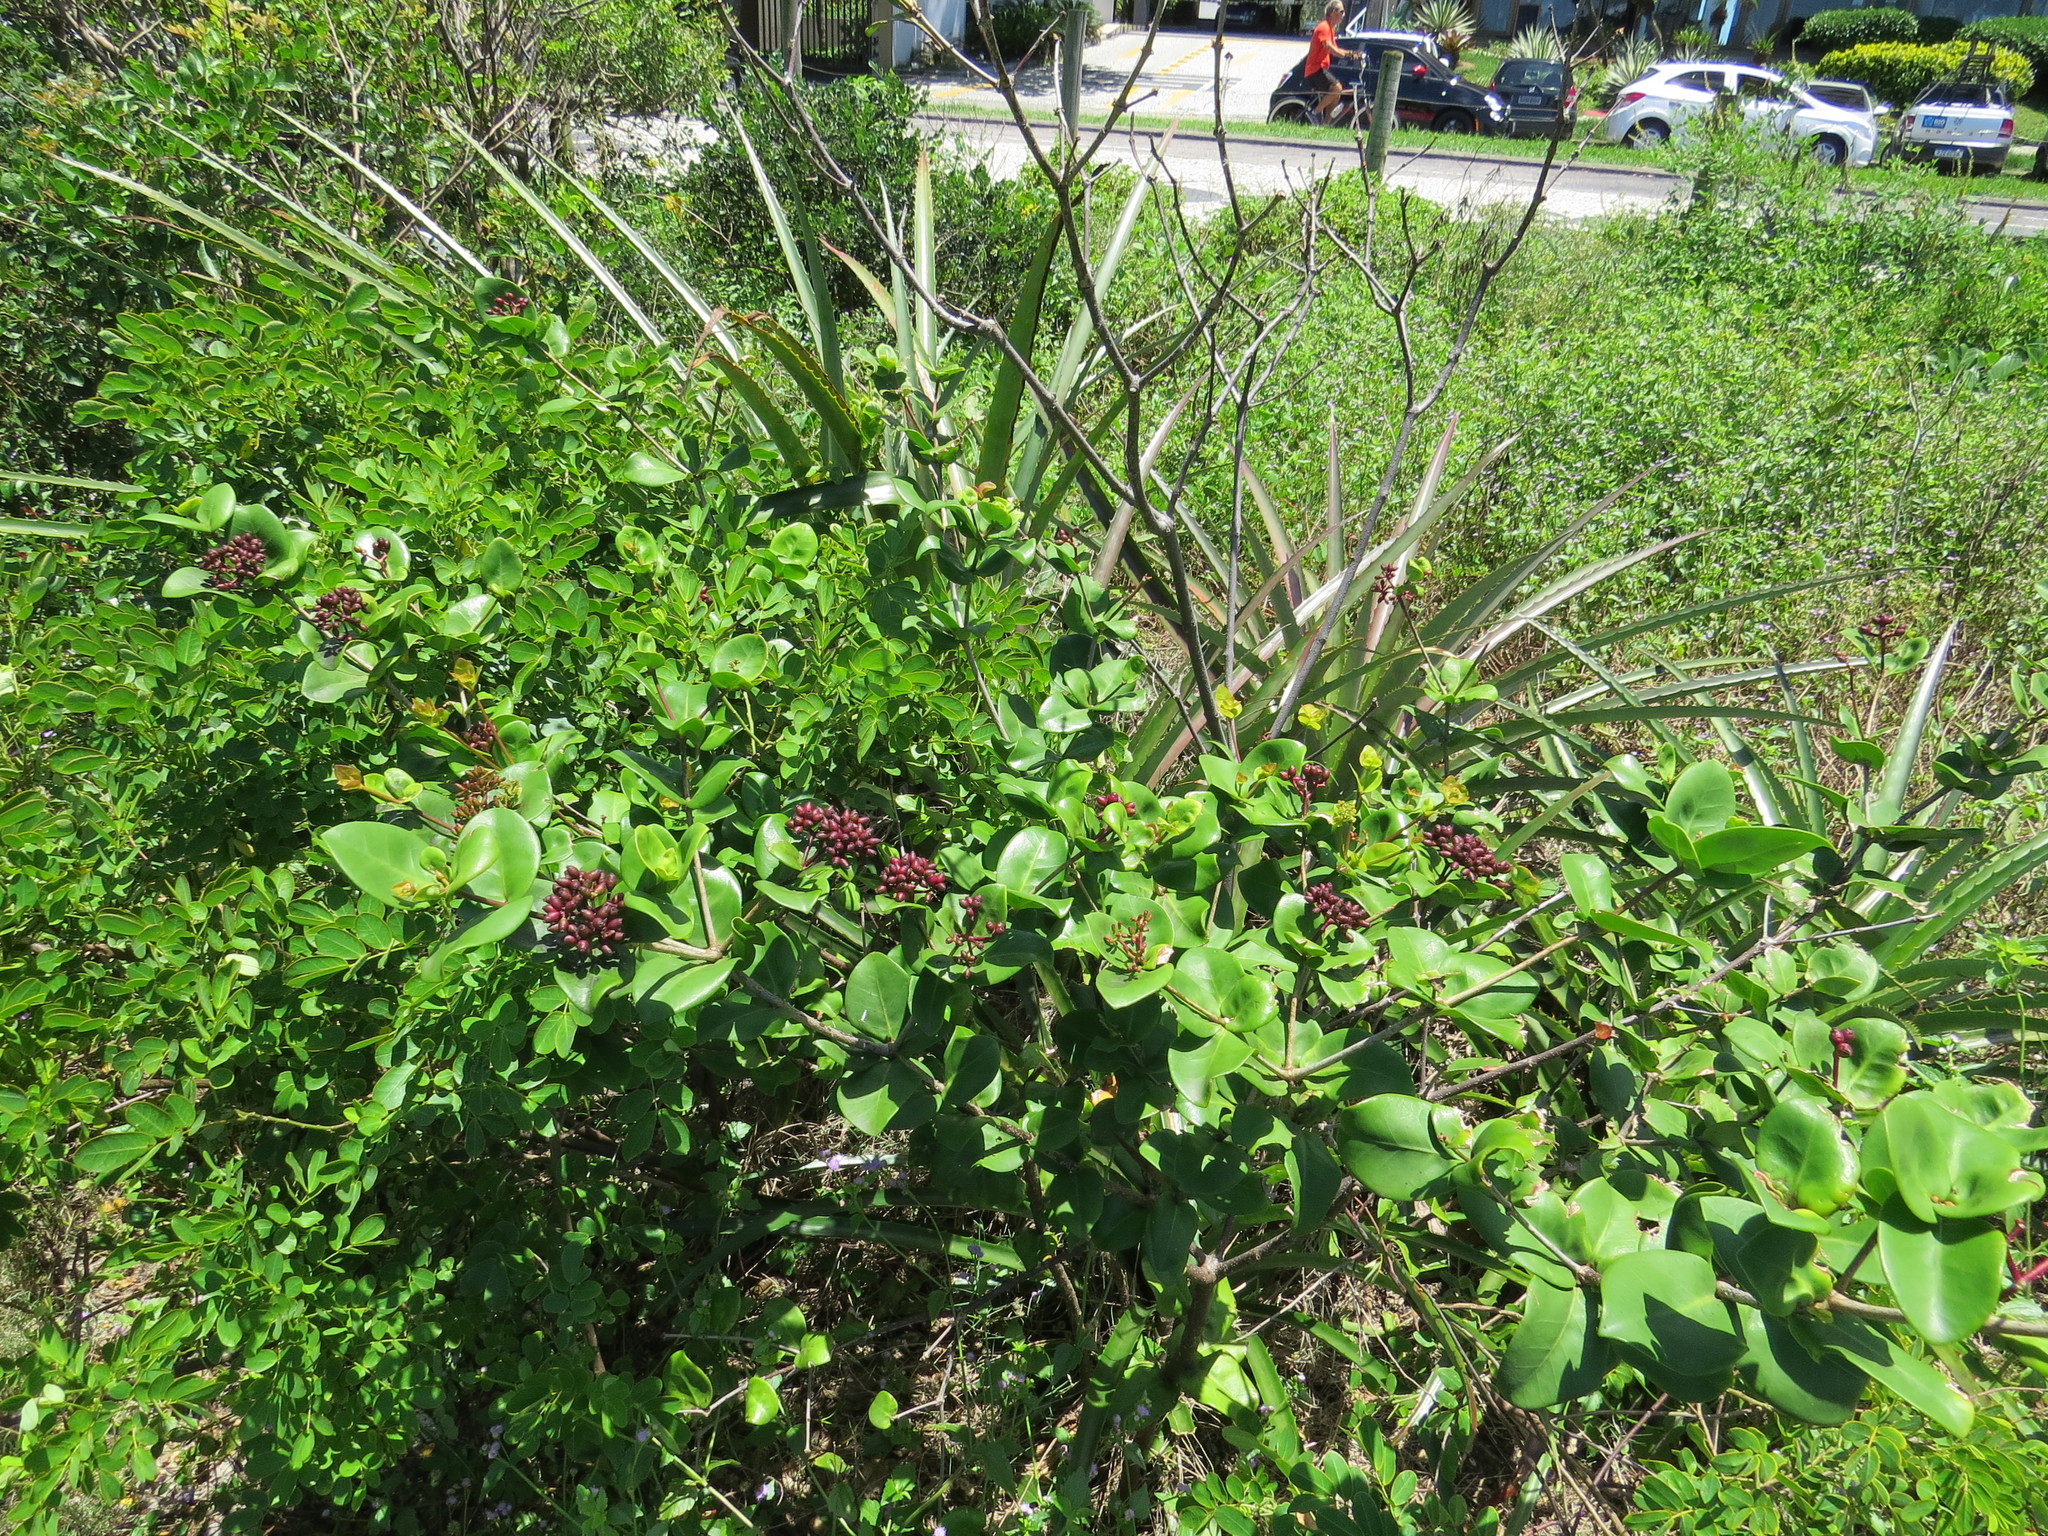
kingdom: Plantae
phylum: Tracheophyta
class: Magnoliopsida
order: Caryophyllales
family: Nyctaginaceae
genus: Guapira
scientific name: Guapira pernambucensis
